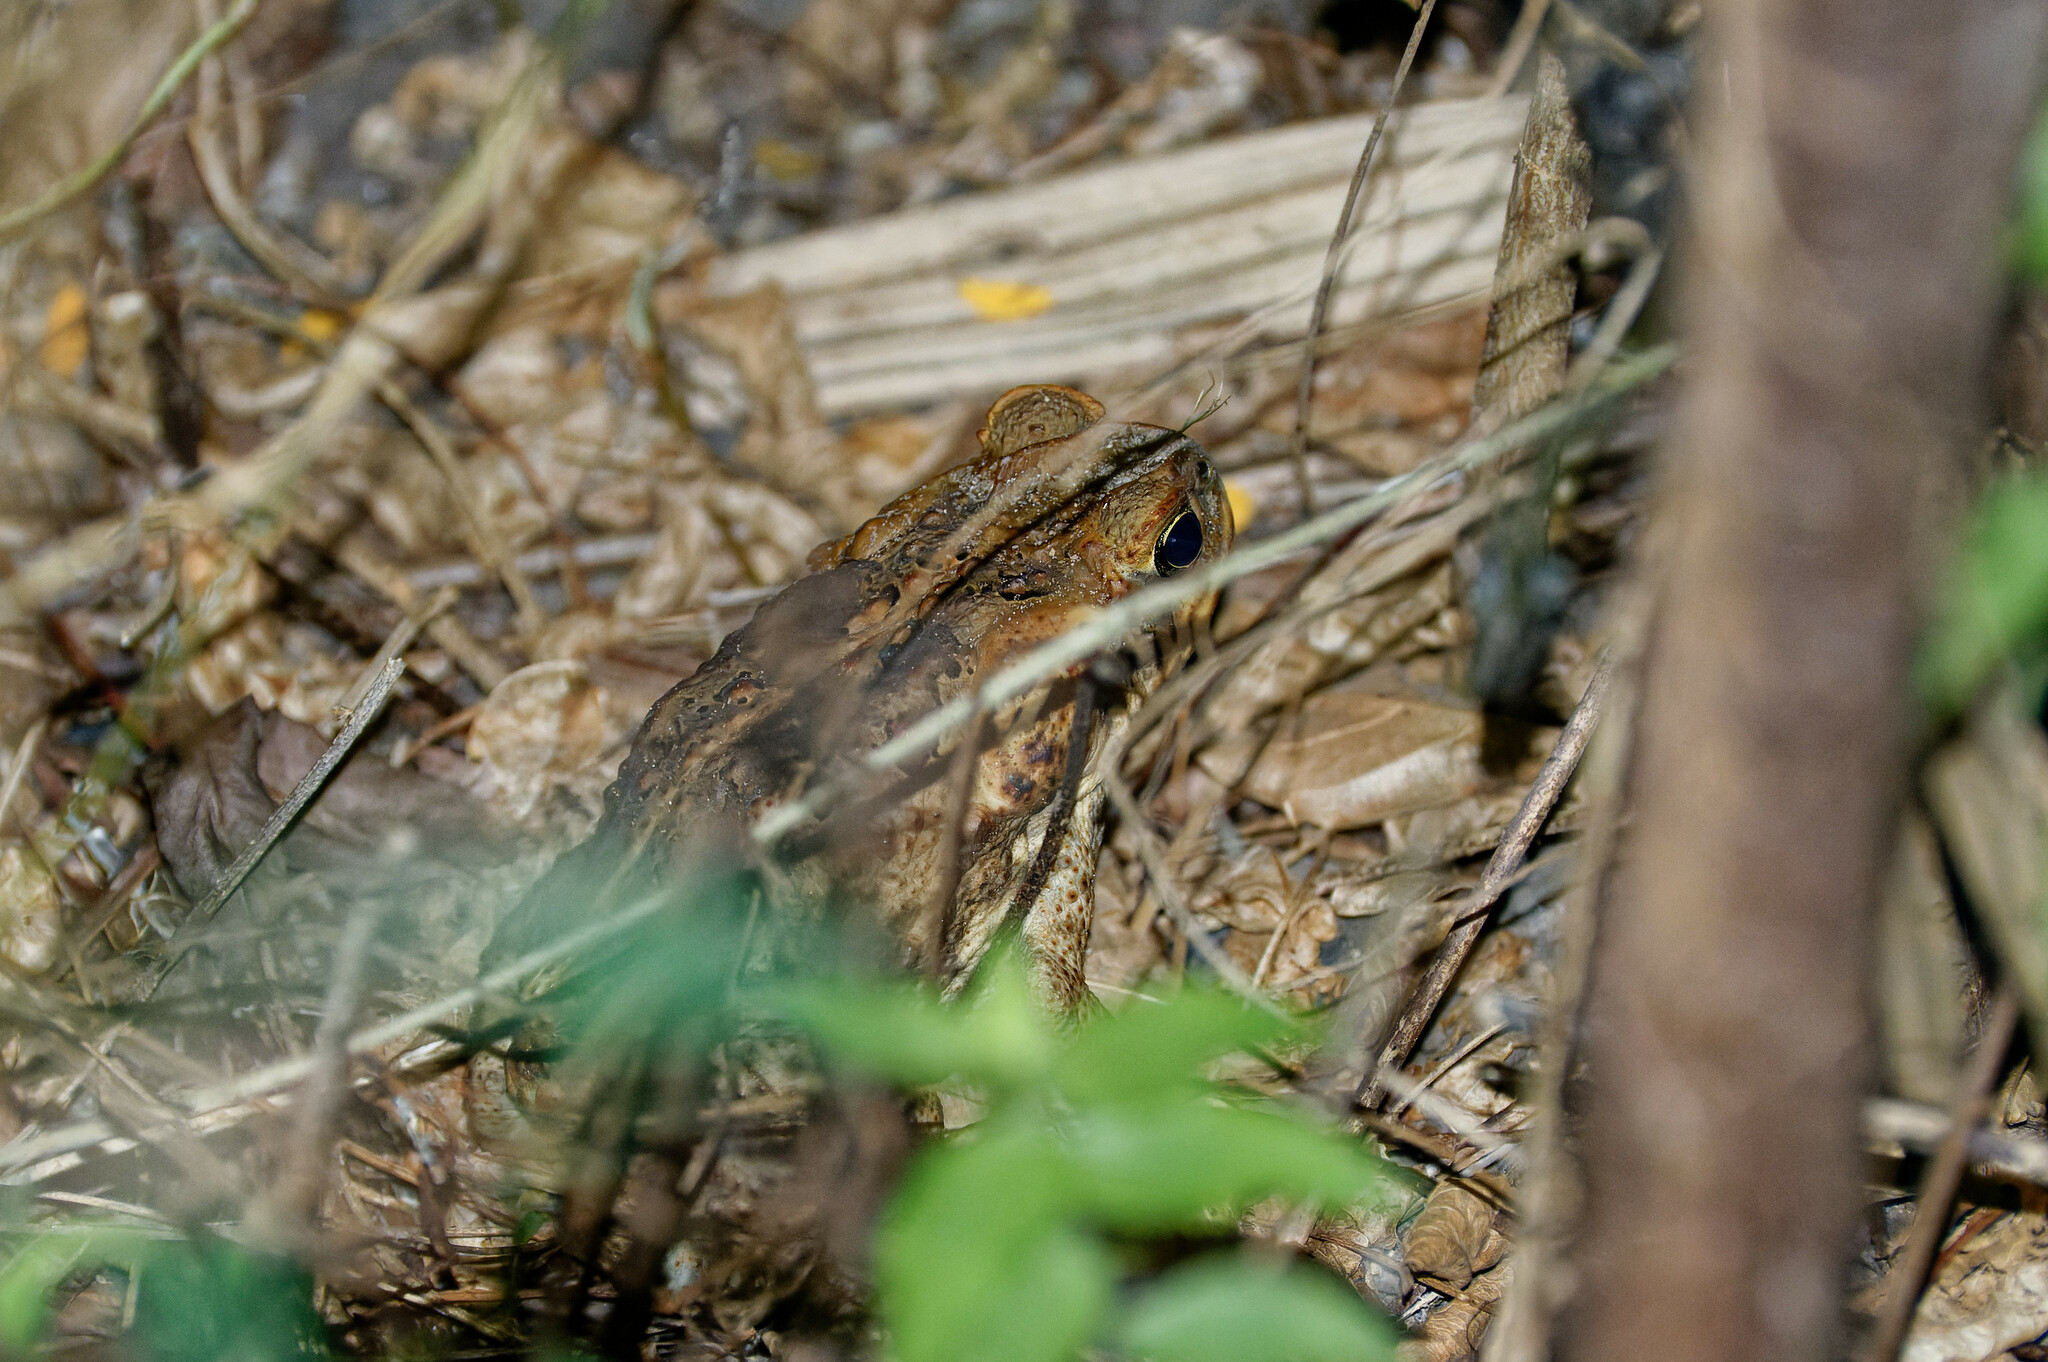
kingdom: Animalia
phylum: Chordata
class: Amphibia
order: Anura
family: Bufonidae
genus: Rhinella
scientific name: Rhinella marina
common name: Cane toad
